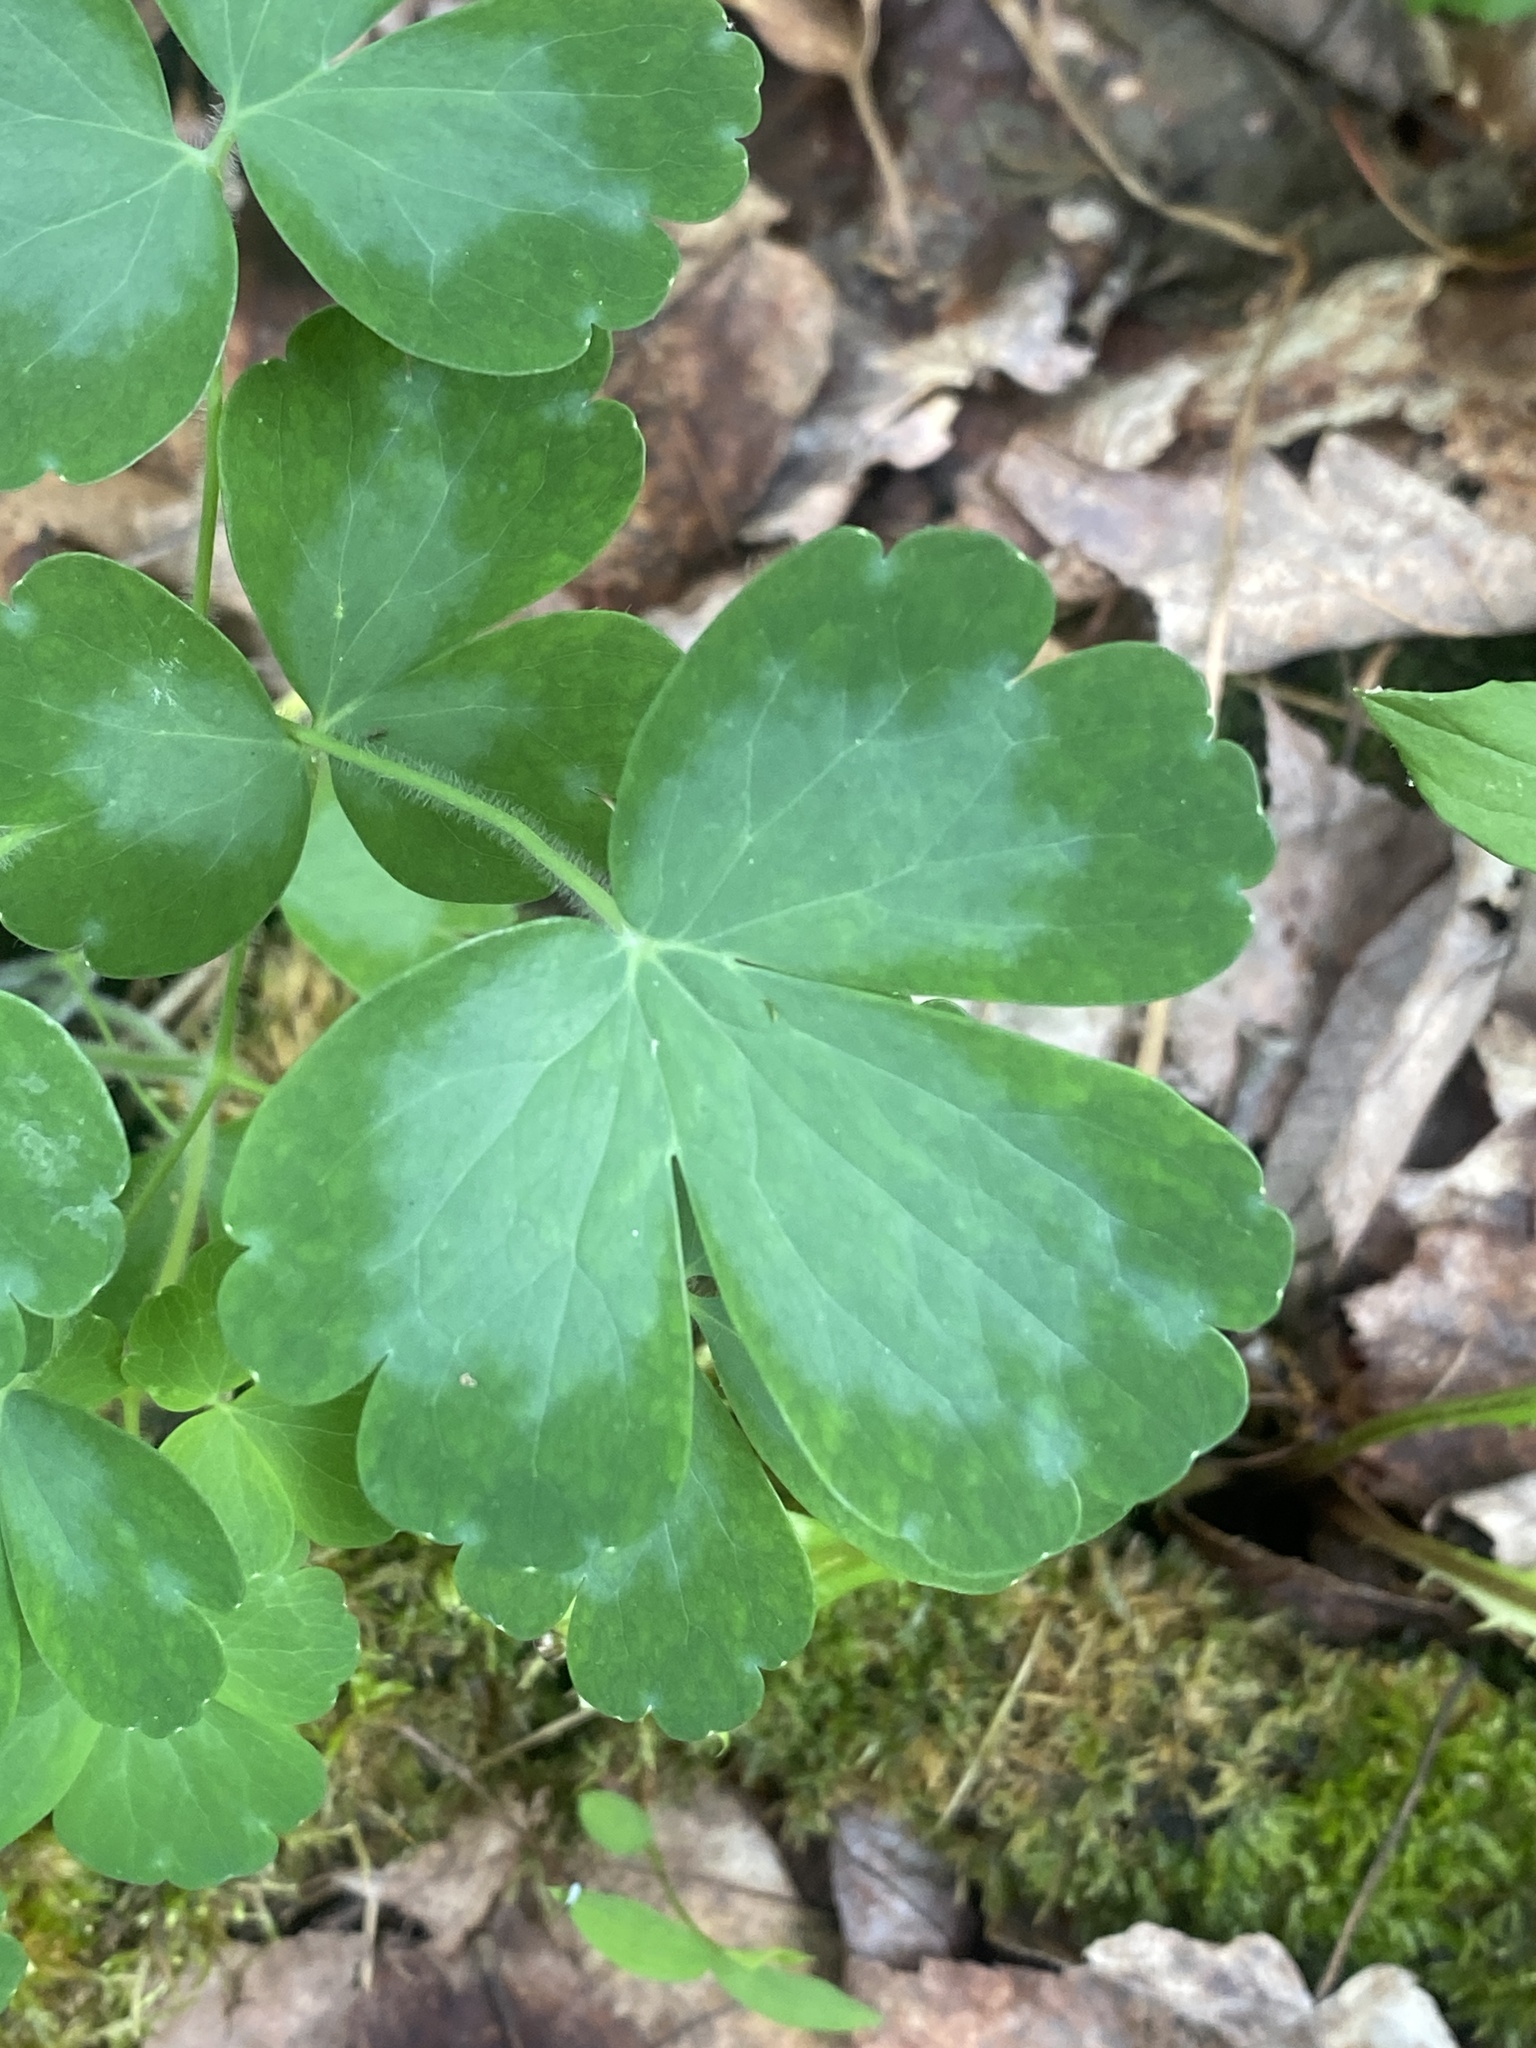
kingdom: Plantae
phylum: Tracheophyta
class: Magnoliopsida
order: Ranunculales
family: Ranunculaceae
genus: Aquilegia
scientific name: Aquilegia vulgaris
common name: Columbine
